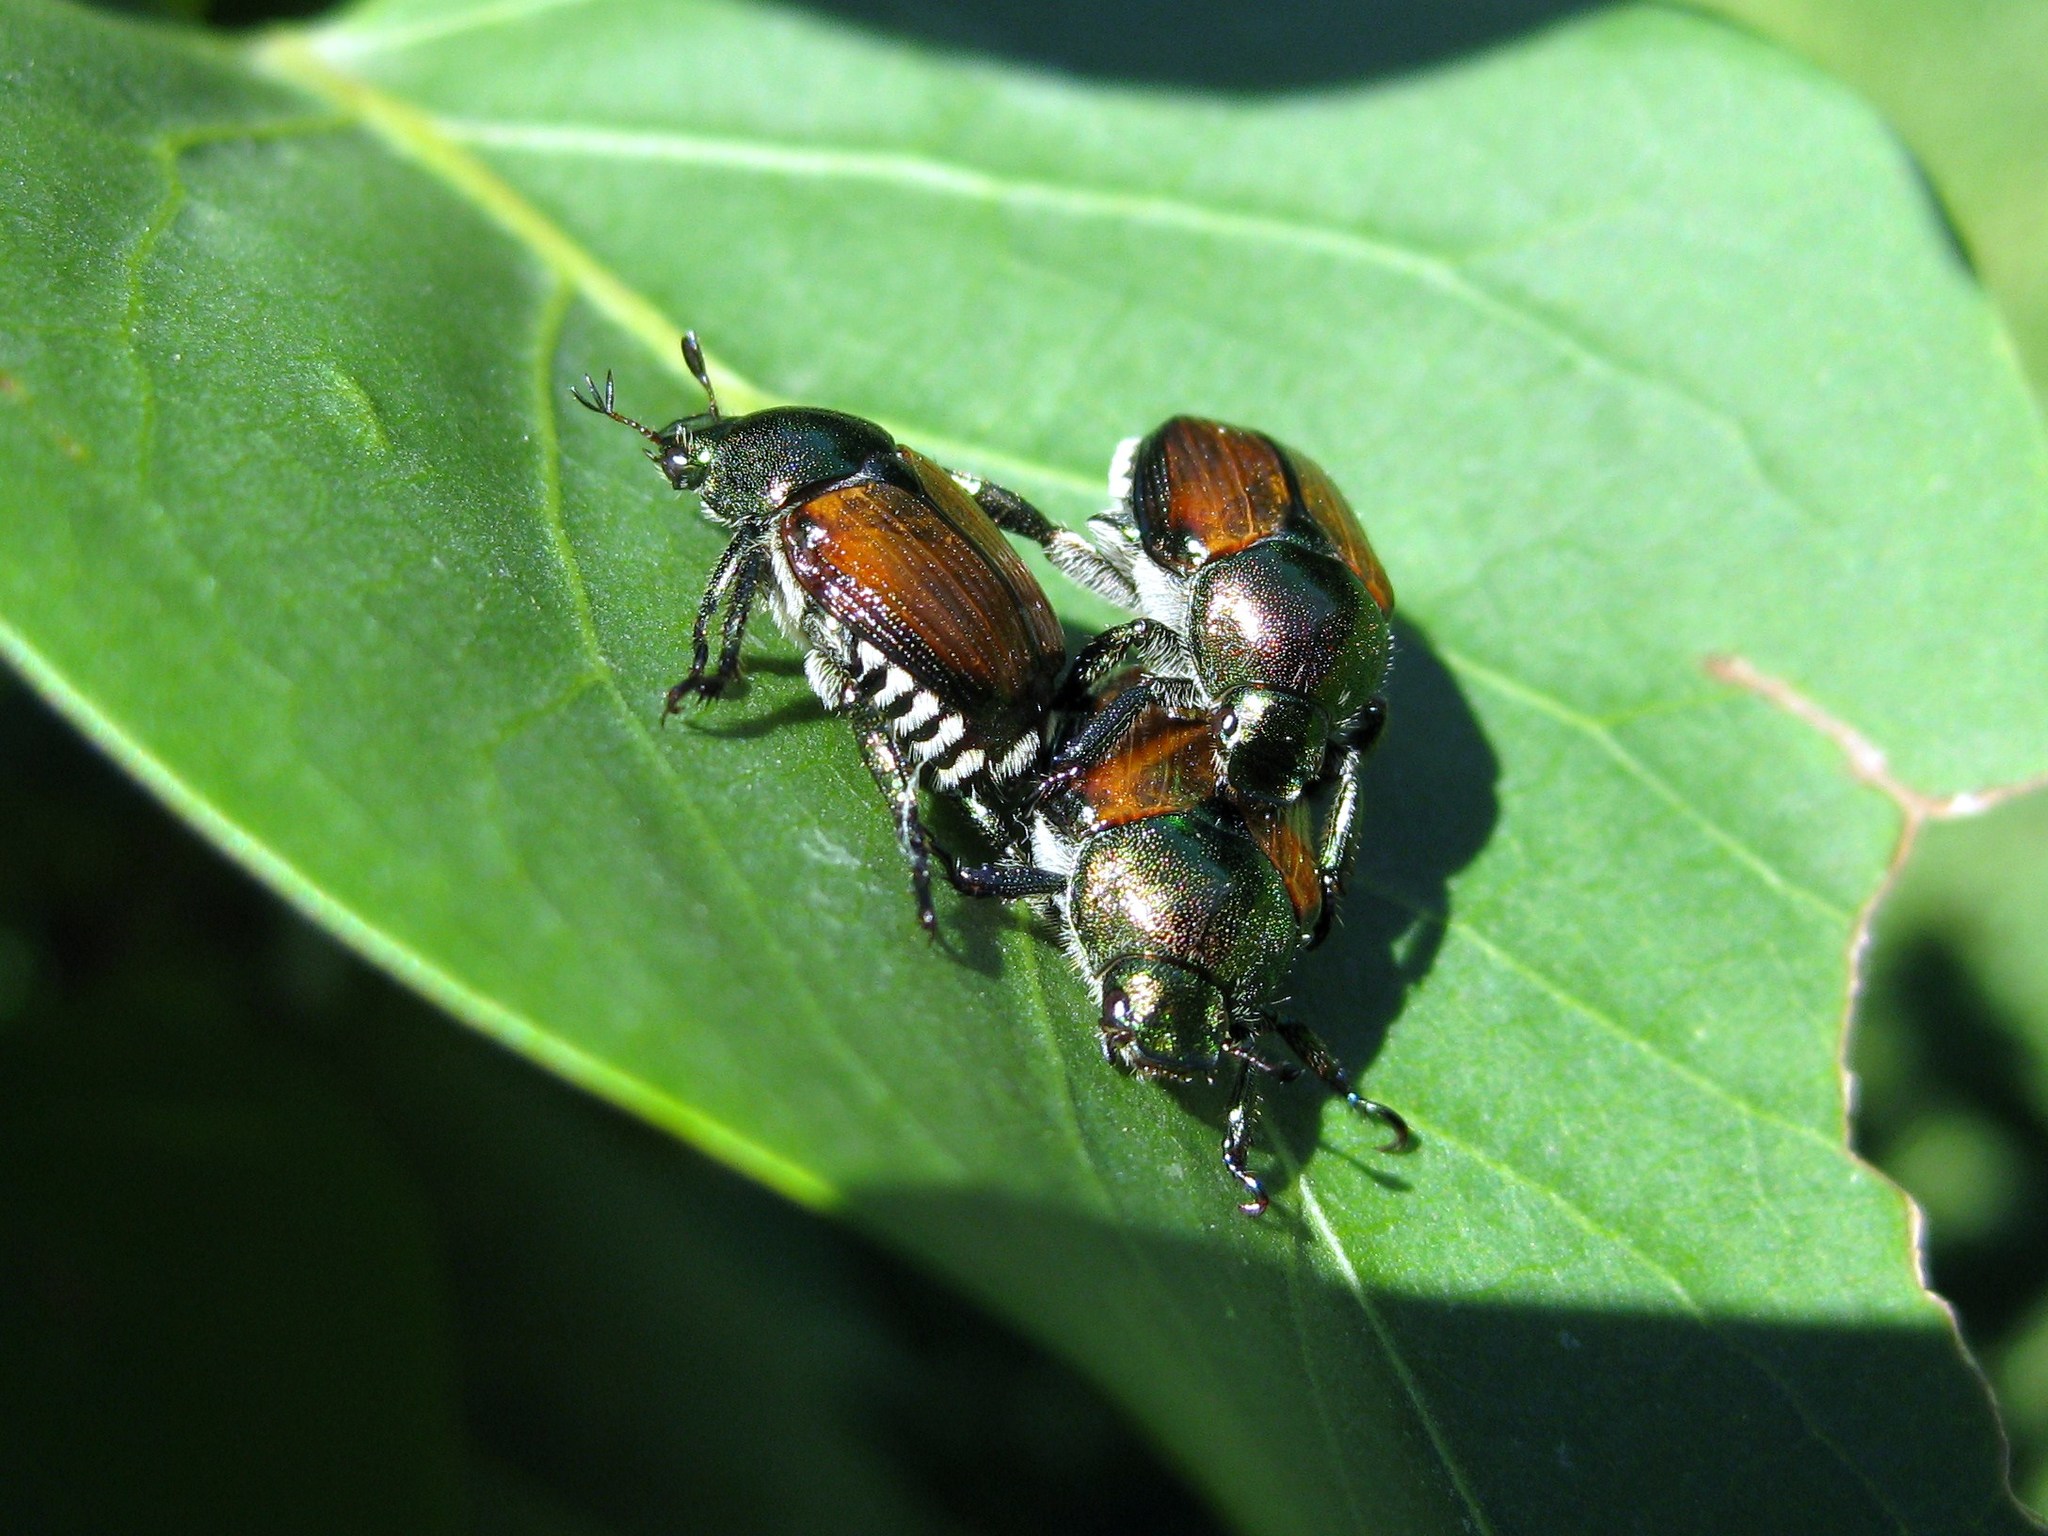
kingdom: Animalia
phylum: Arthropoda
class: Insecta
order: Coleoptera
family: Scarabaeidae
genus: Popillia
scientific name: Popillia japonica
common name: Japanese beetle
